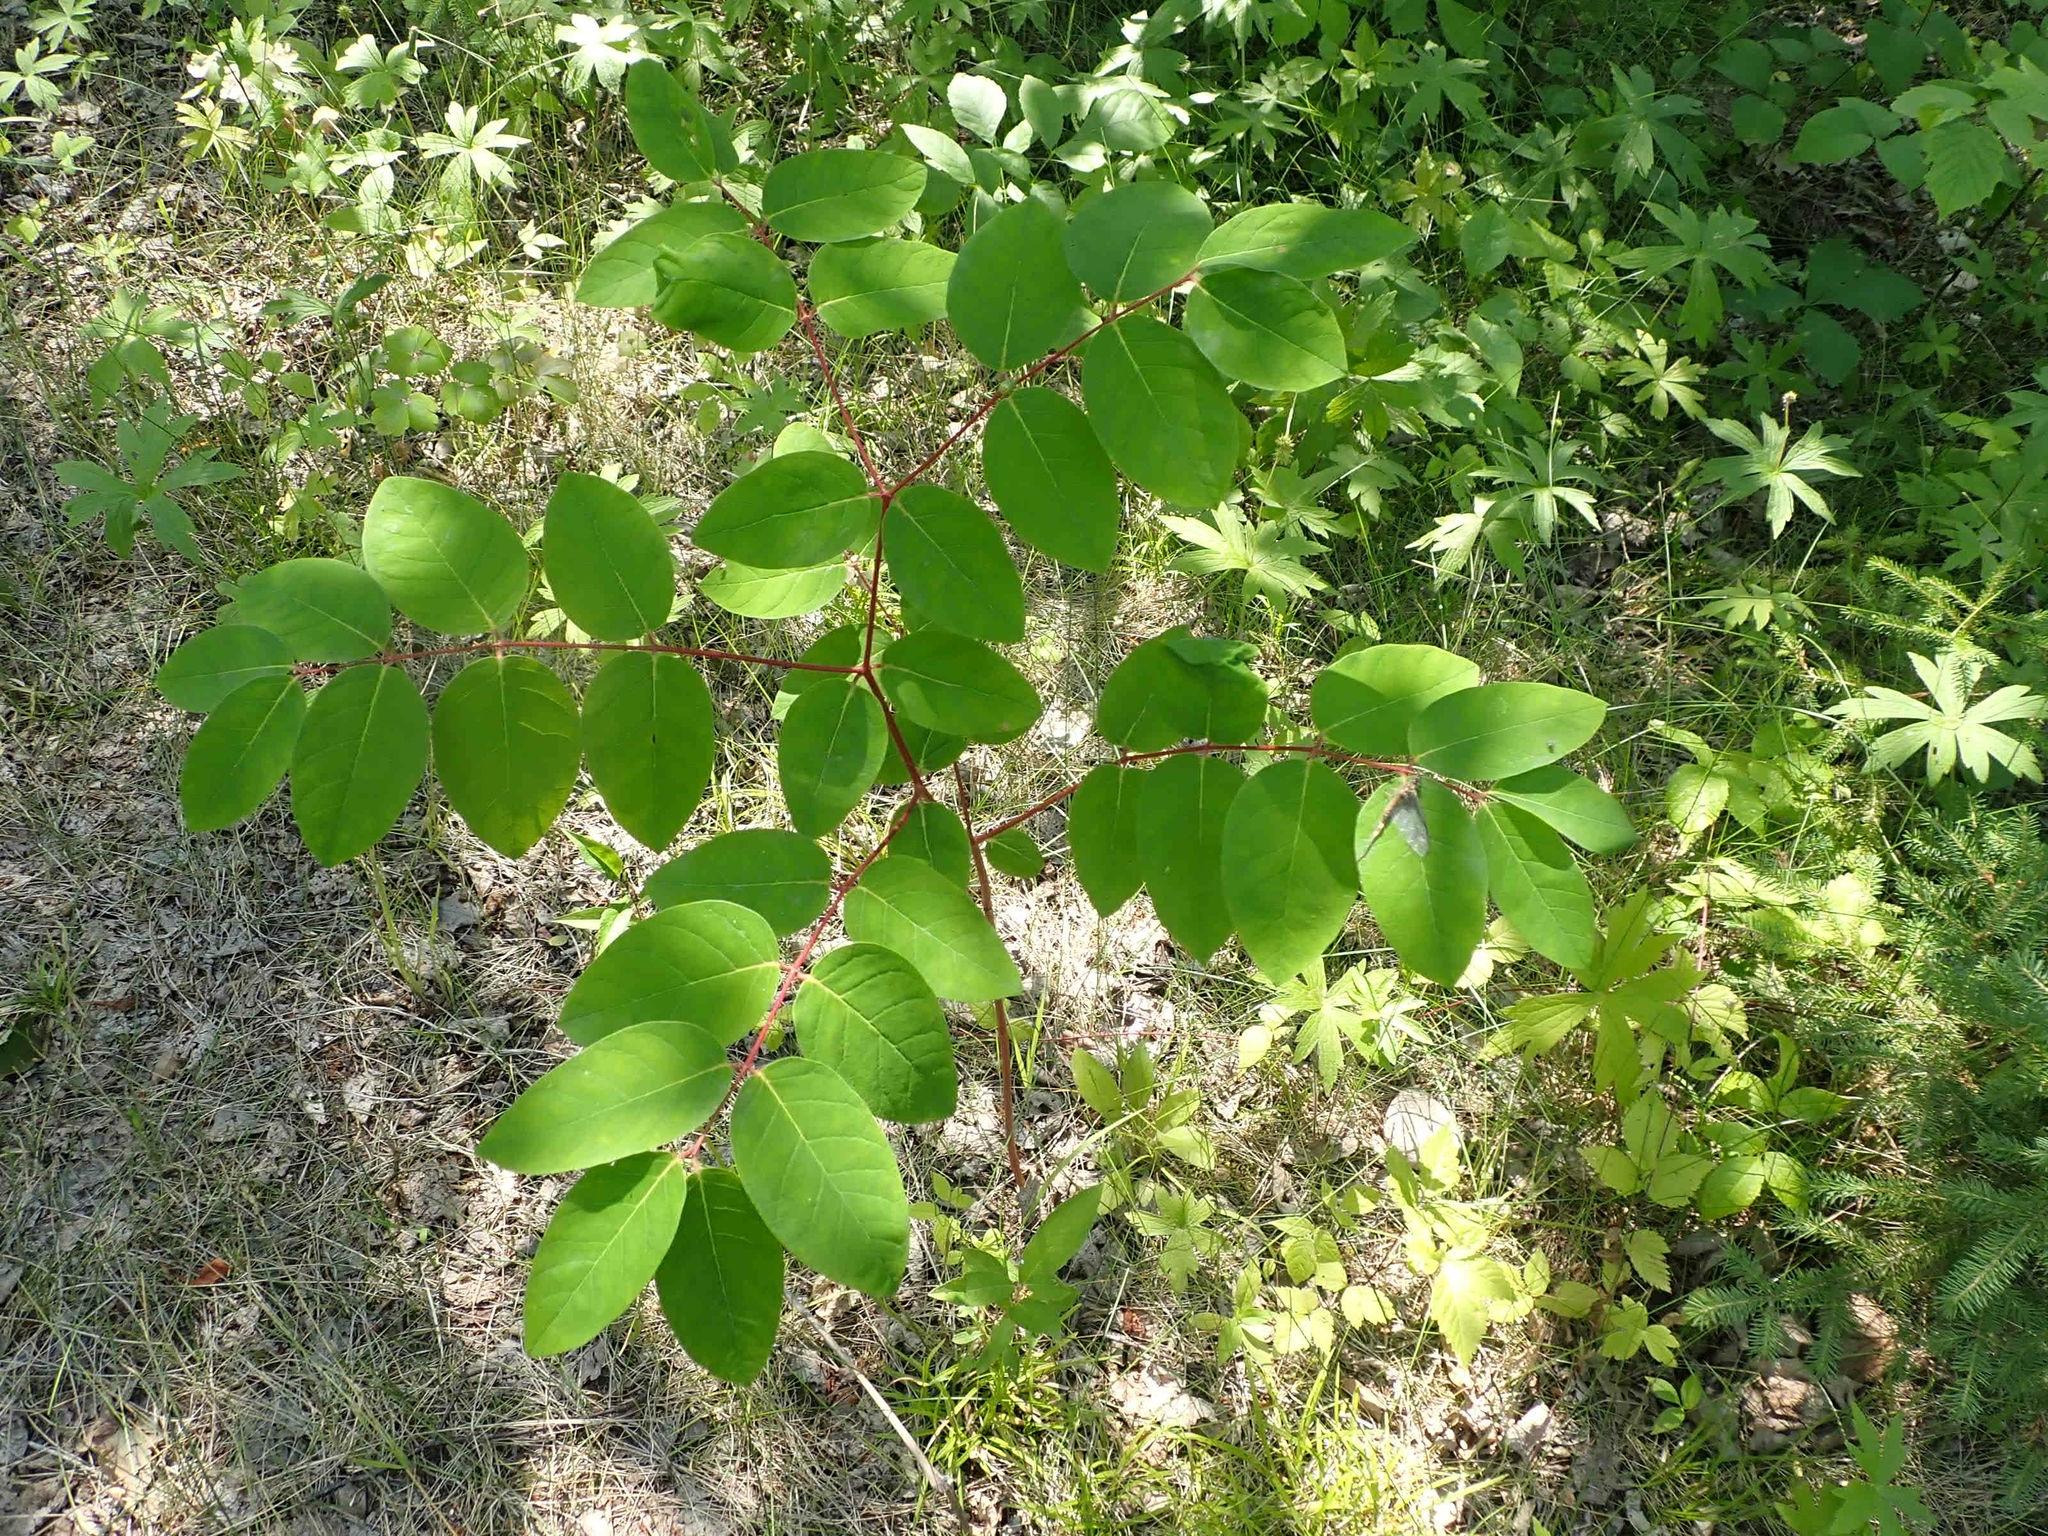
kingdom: Plantae
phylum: Tracheophyta
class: Magnoliopsida
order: Gentianales
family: Apocynaceae
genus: Apocynum
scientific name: Apocynum androsaemifolium
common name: Spreading dogbane
